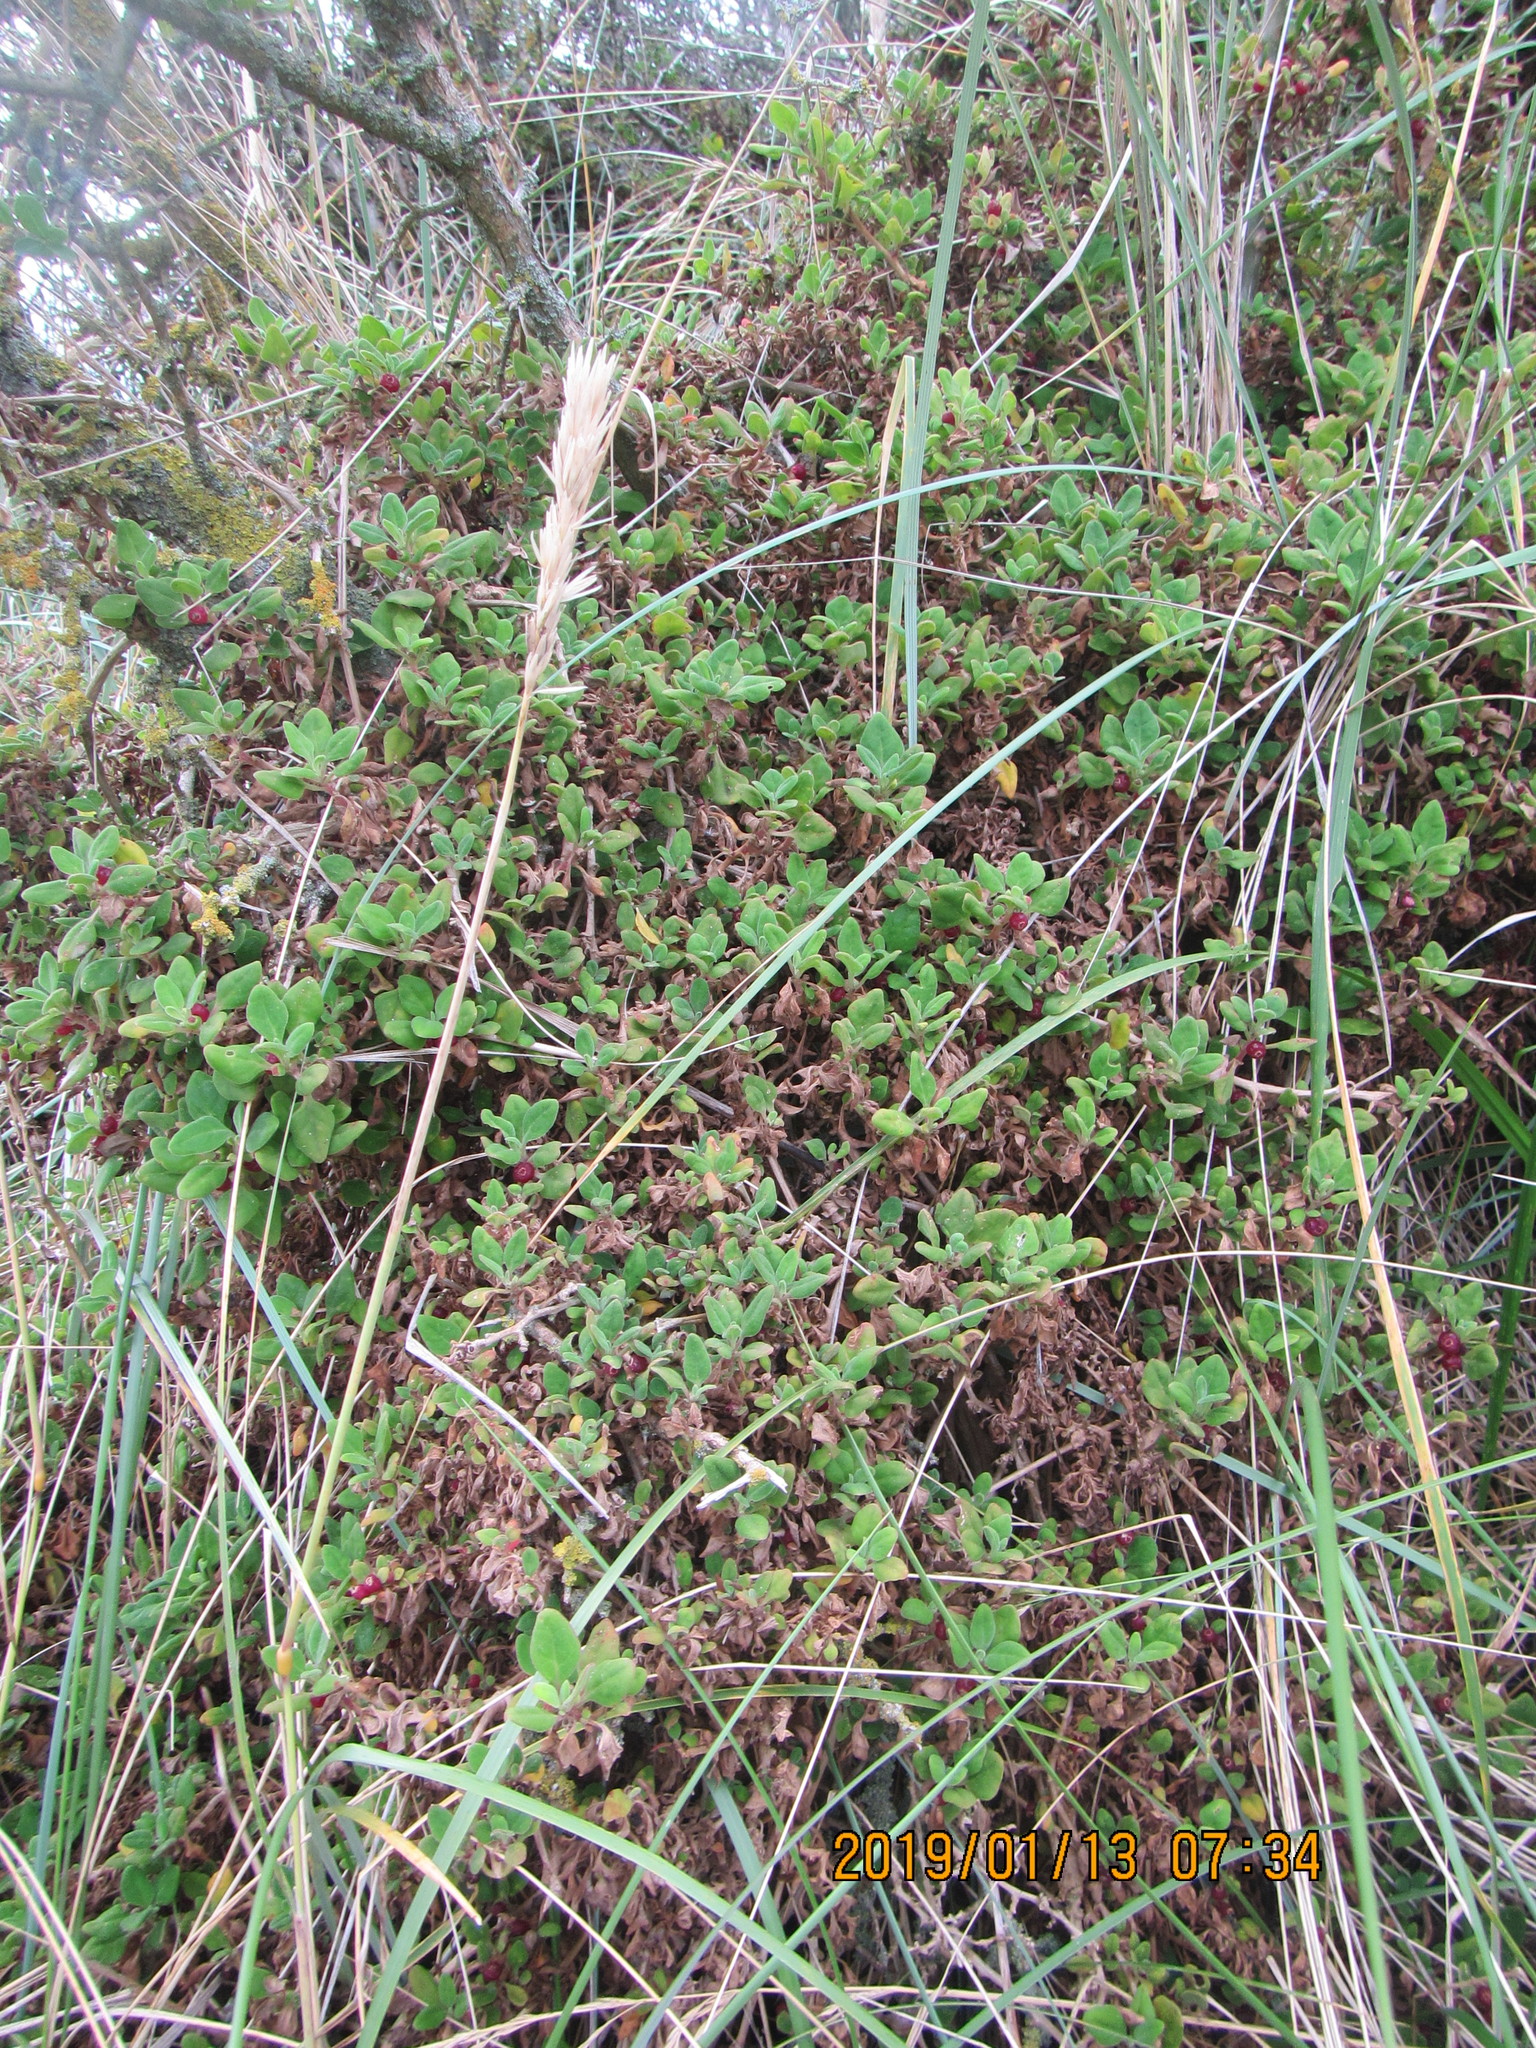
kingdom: Plantae
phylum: Tracheophyta
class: Magnoliopsida
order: Caryophyllales
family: Aizoaceae
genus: Tetragonia
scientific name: Tetragonia implexicoma
